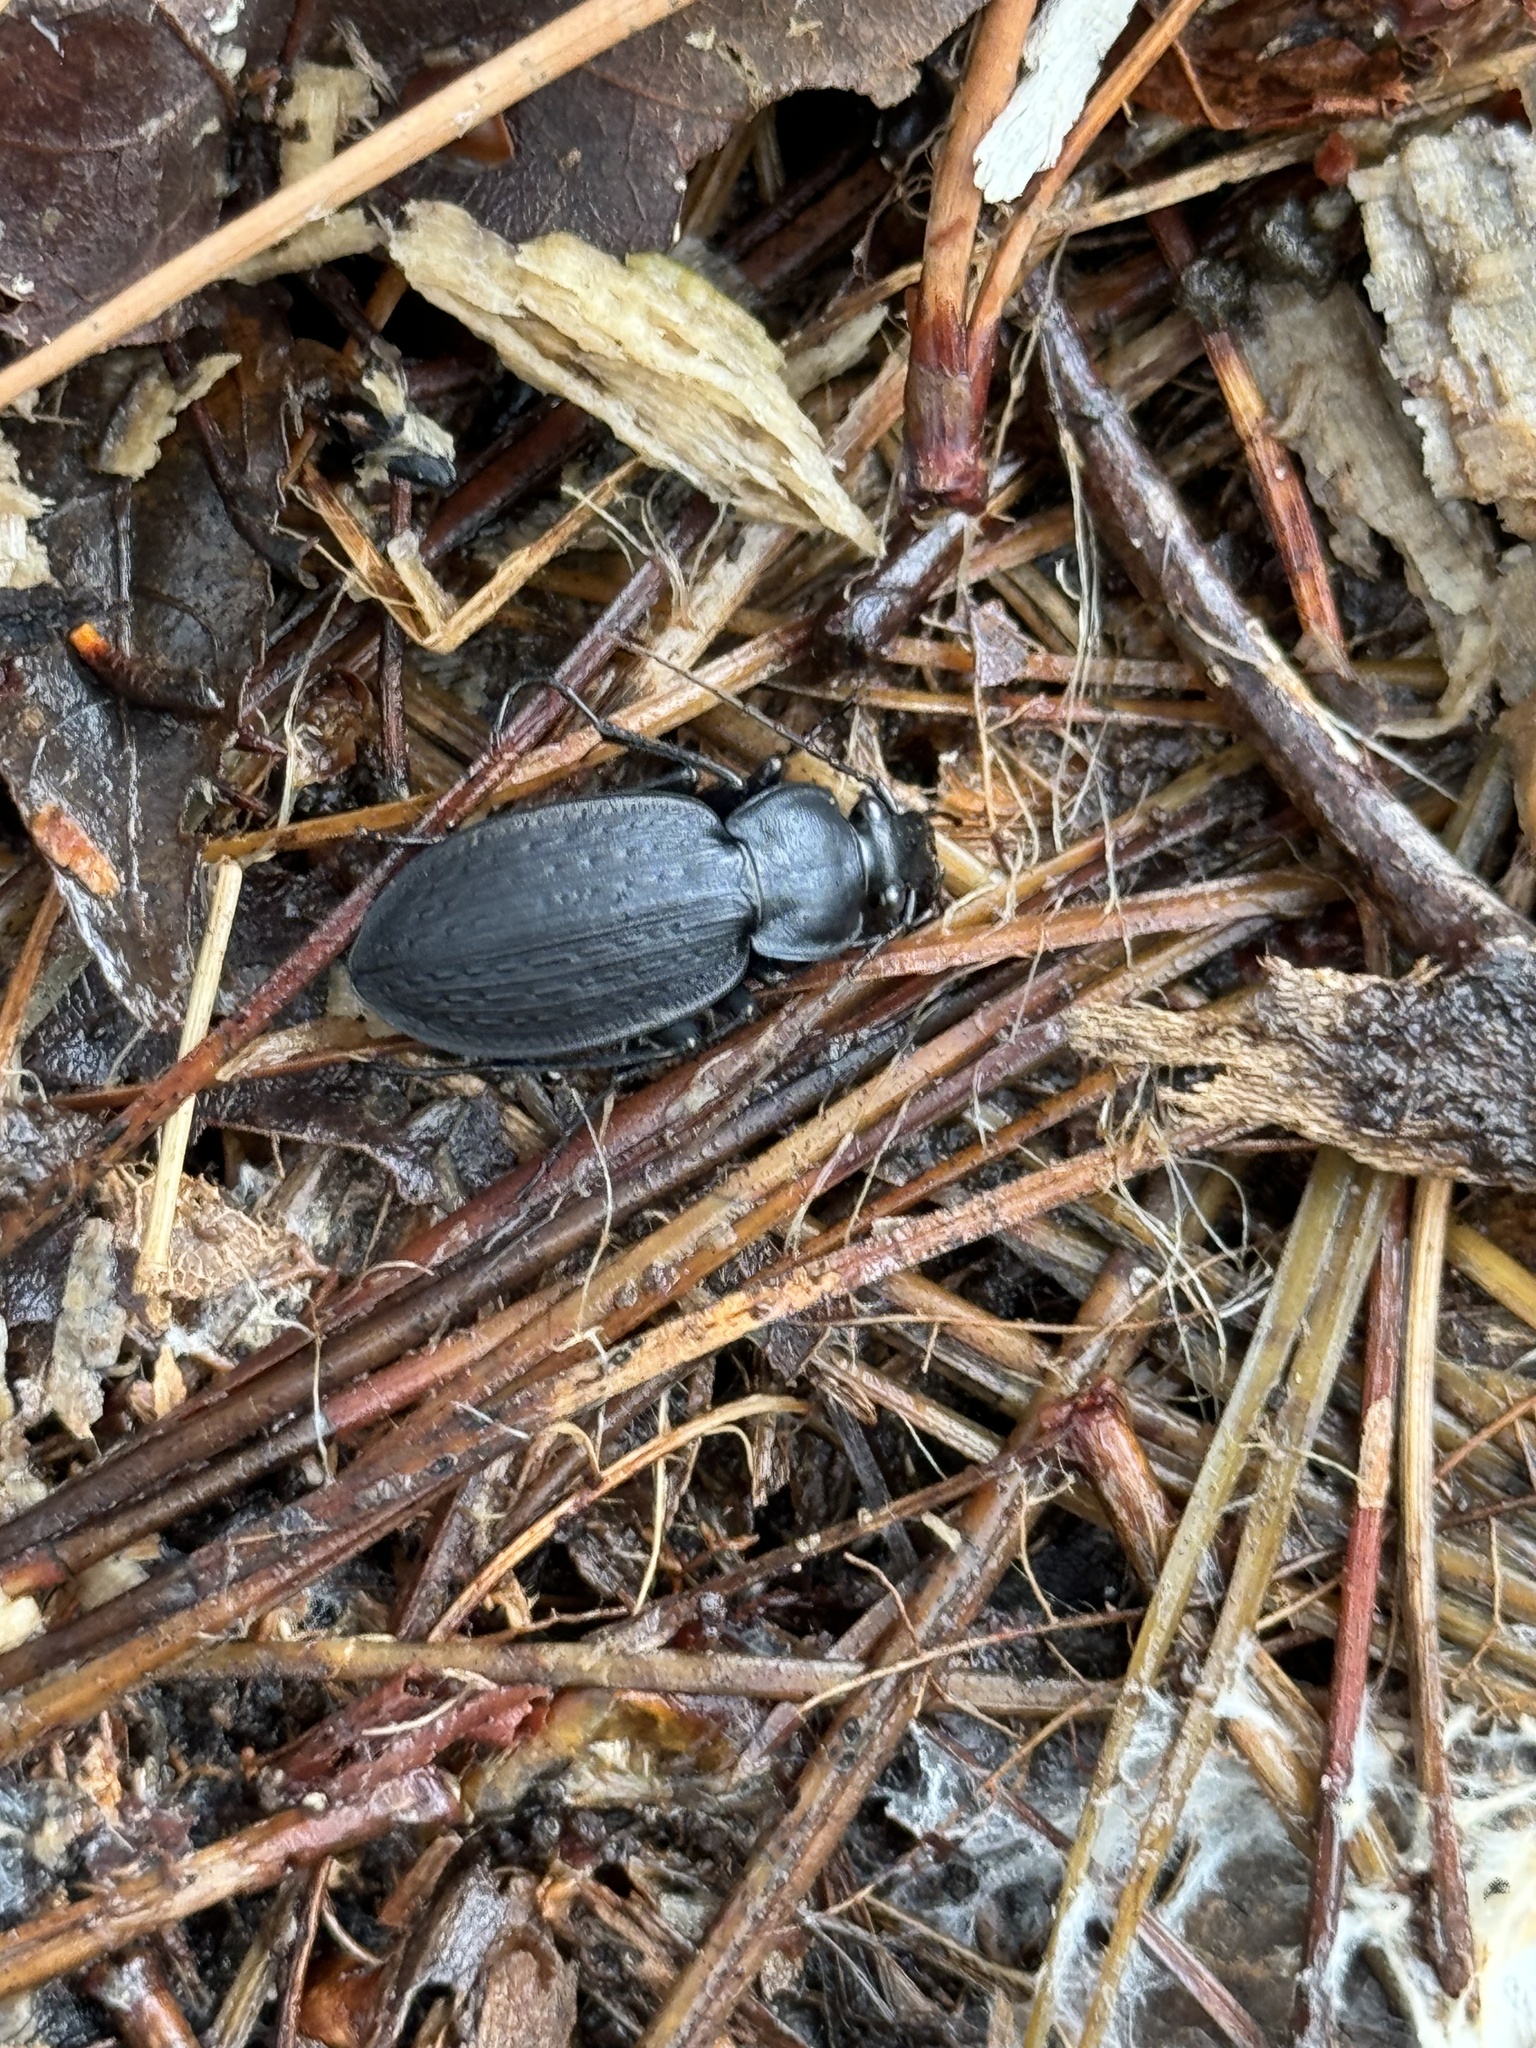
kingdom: Animalia
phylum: Arthropoda
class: Insecta
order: Coleoptera
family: Carabidae
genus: Carabus
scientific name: Carabus vinctus
